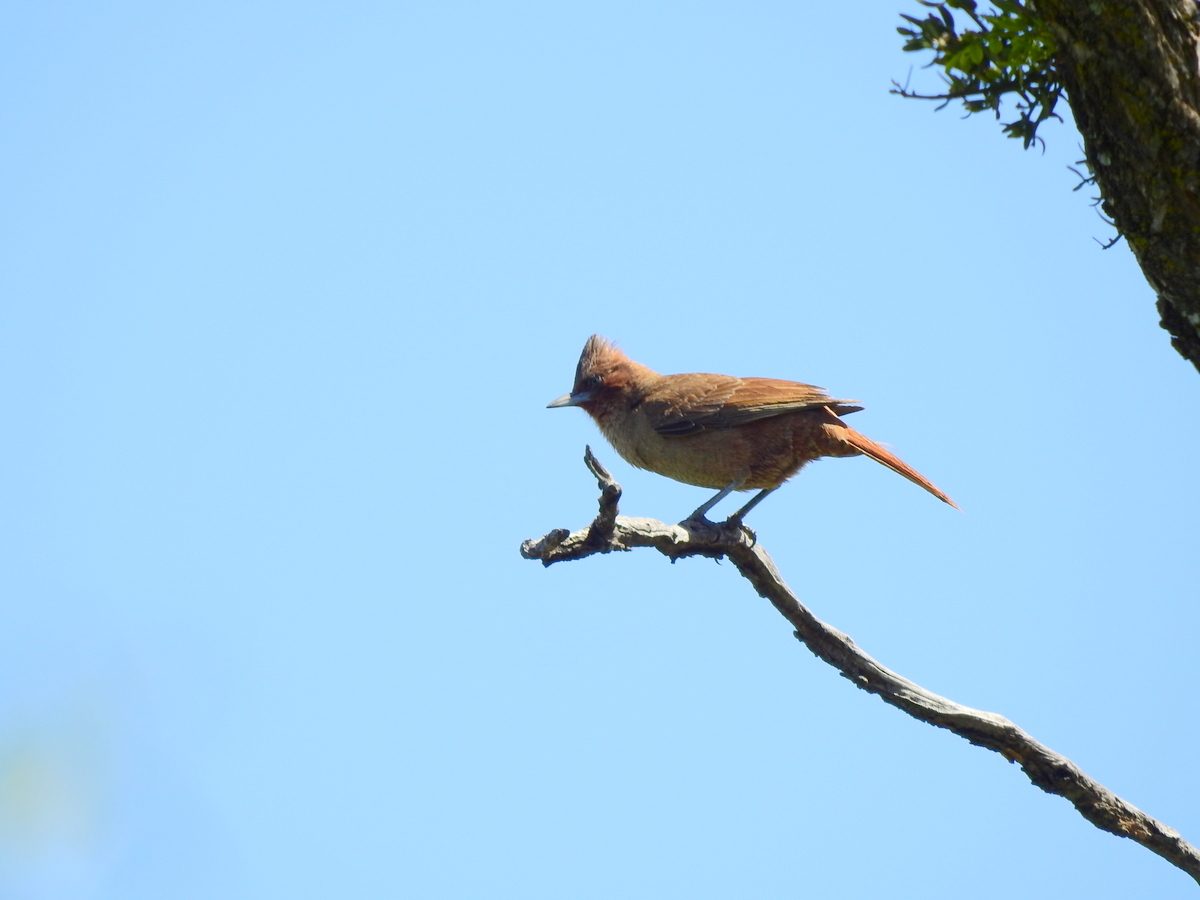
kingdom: Animalia
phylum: Chordata
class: Aves
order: Passeriformes
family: Furnariidae
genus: Pseudoseisura
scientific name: Pseudoseisura lophotes
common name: Brown cacholote
